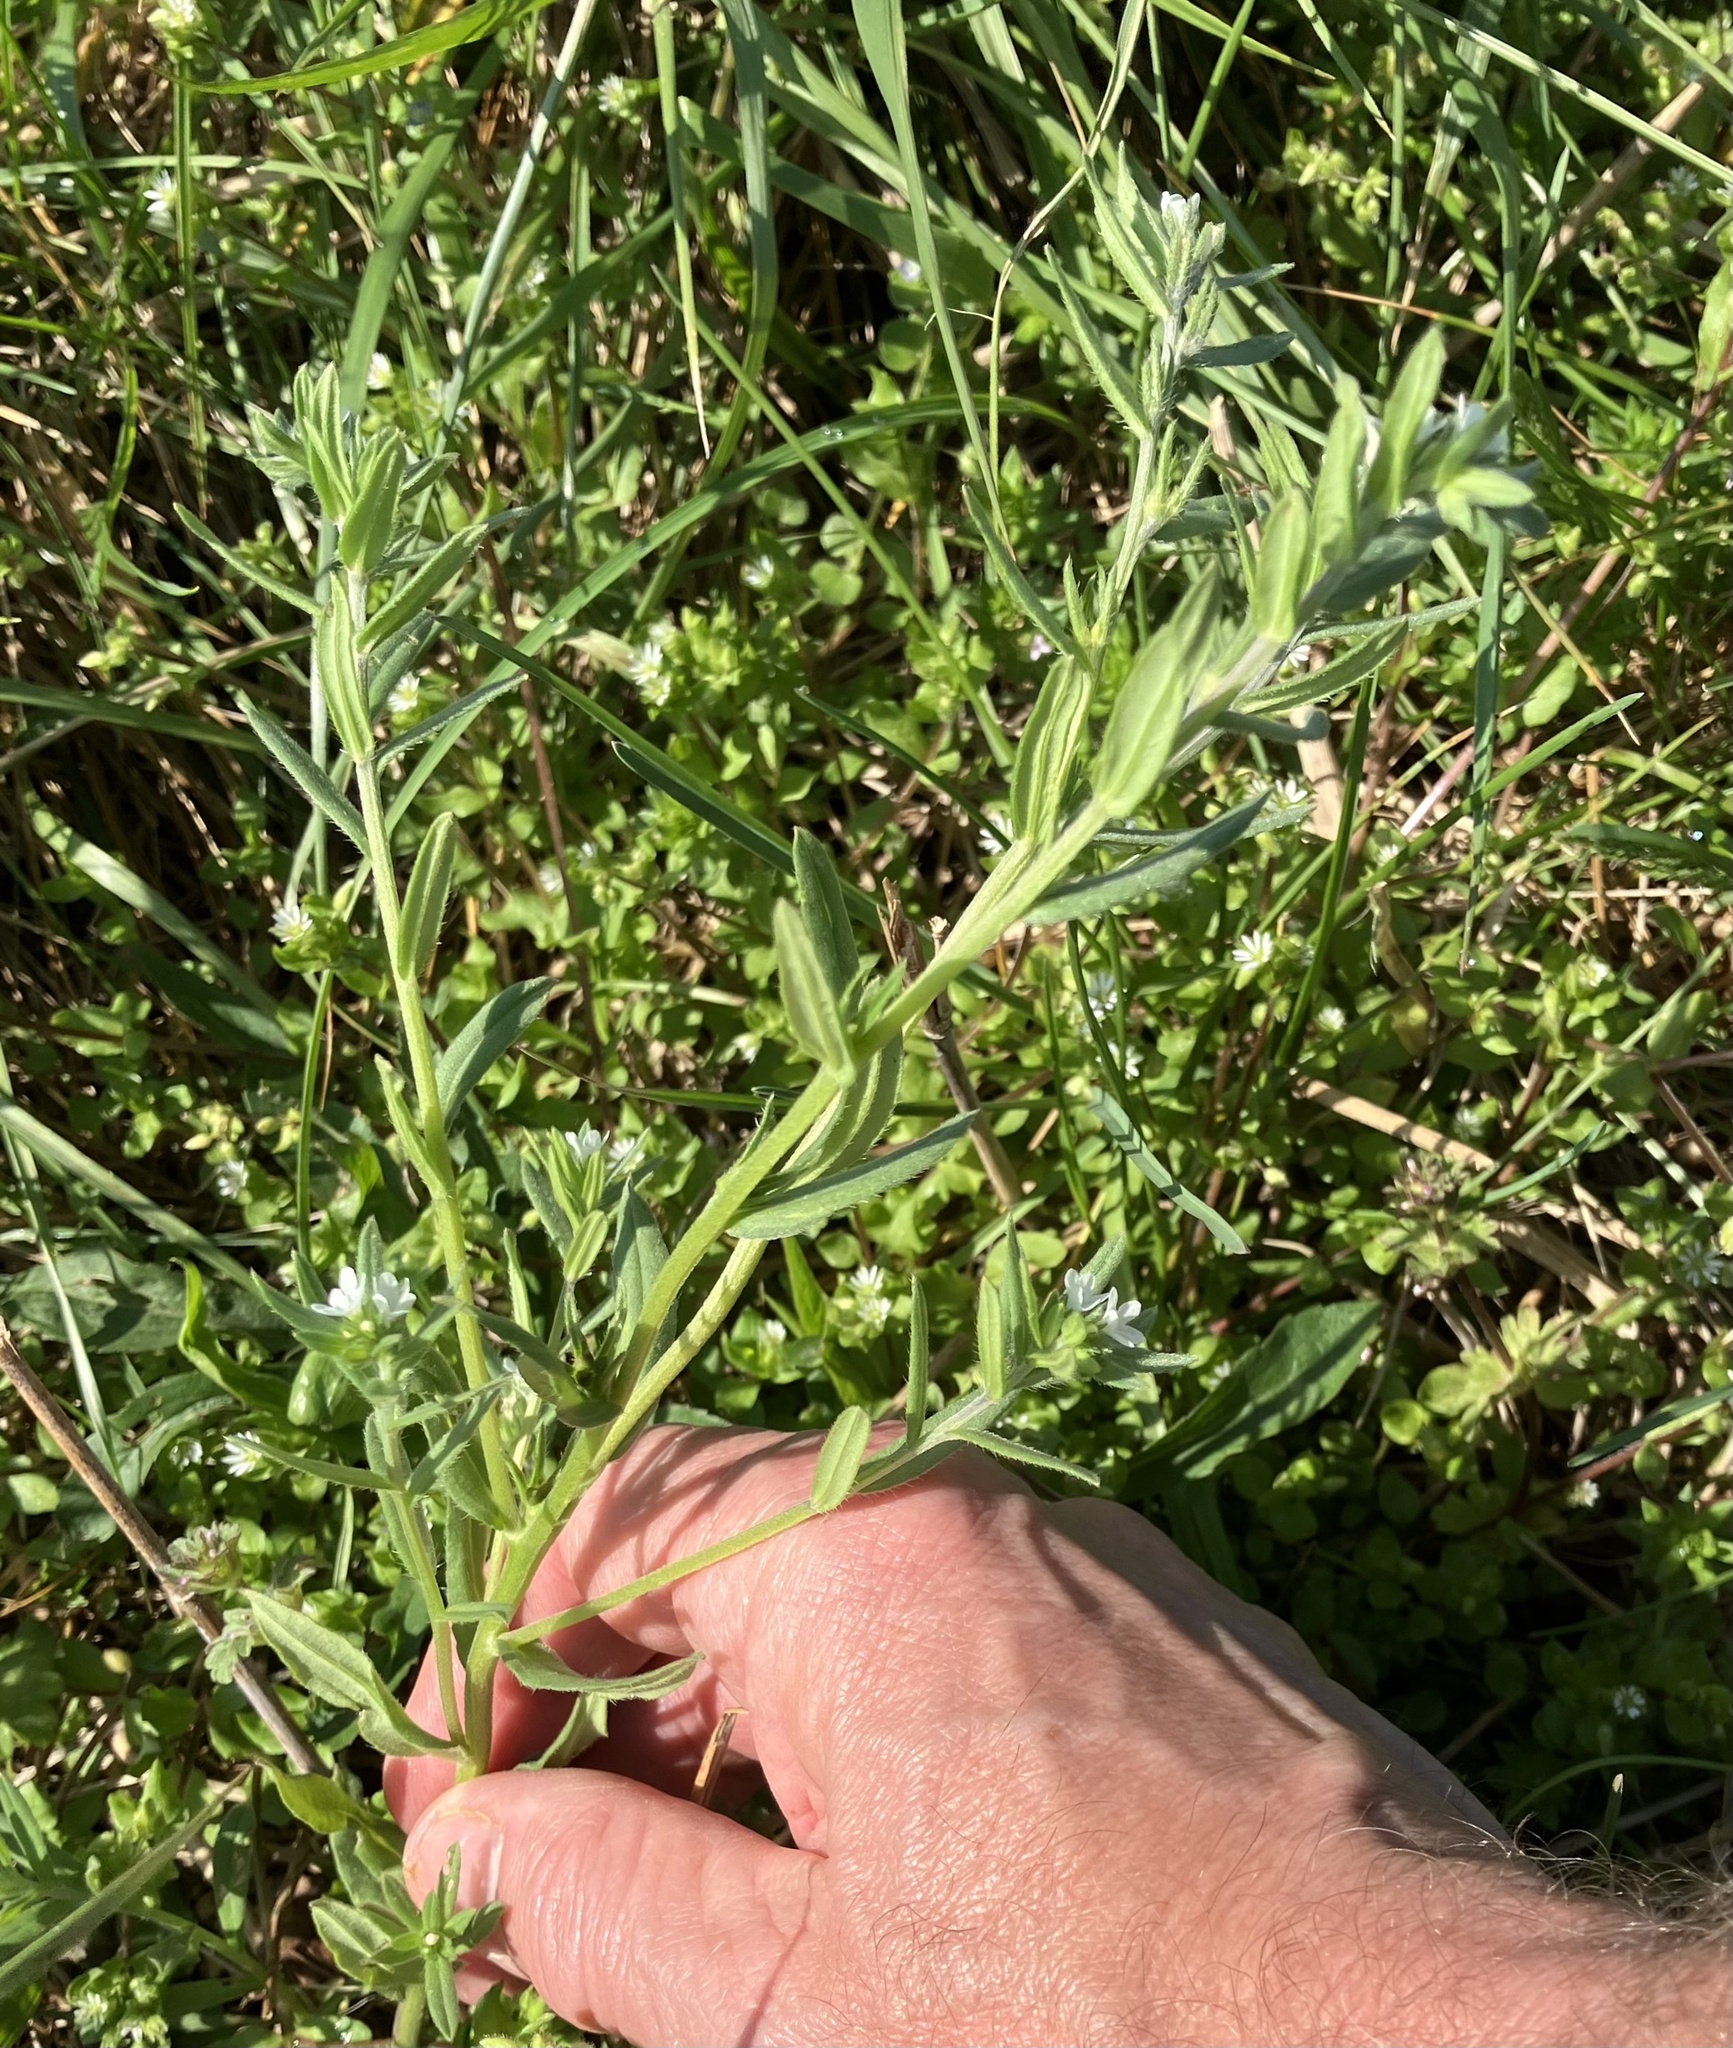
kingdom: Plantae
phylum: Tracheophyta
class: Magnoliopsida
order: Boraginales
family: Boraginaceae
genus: Buglossoides
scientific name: Buglossoides arvensis
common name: Corn gromwell
